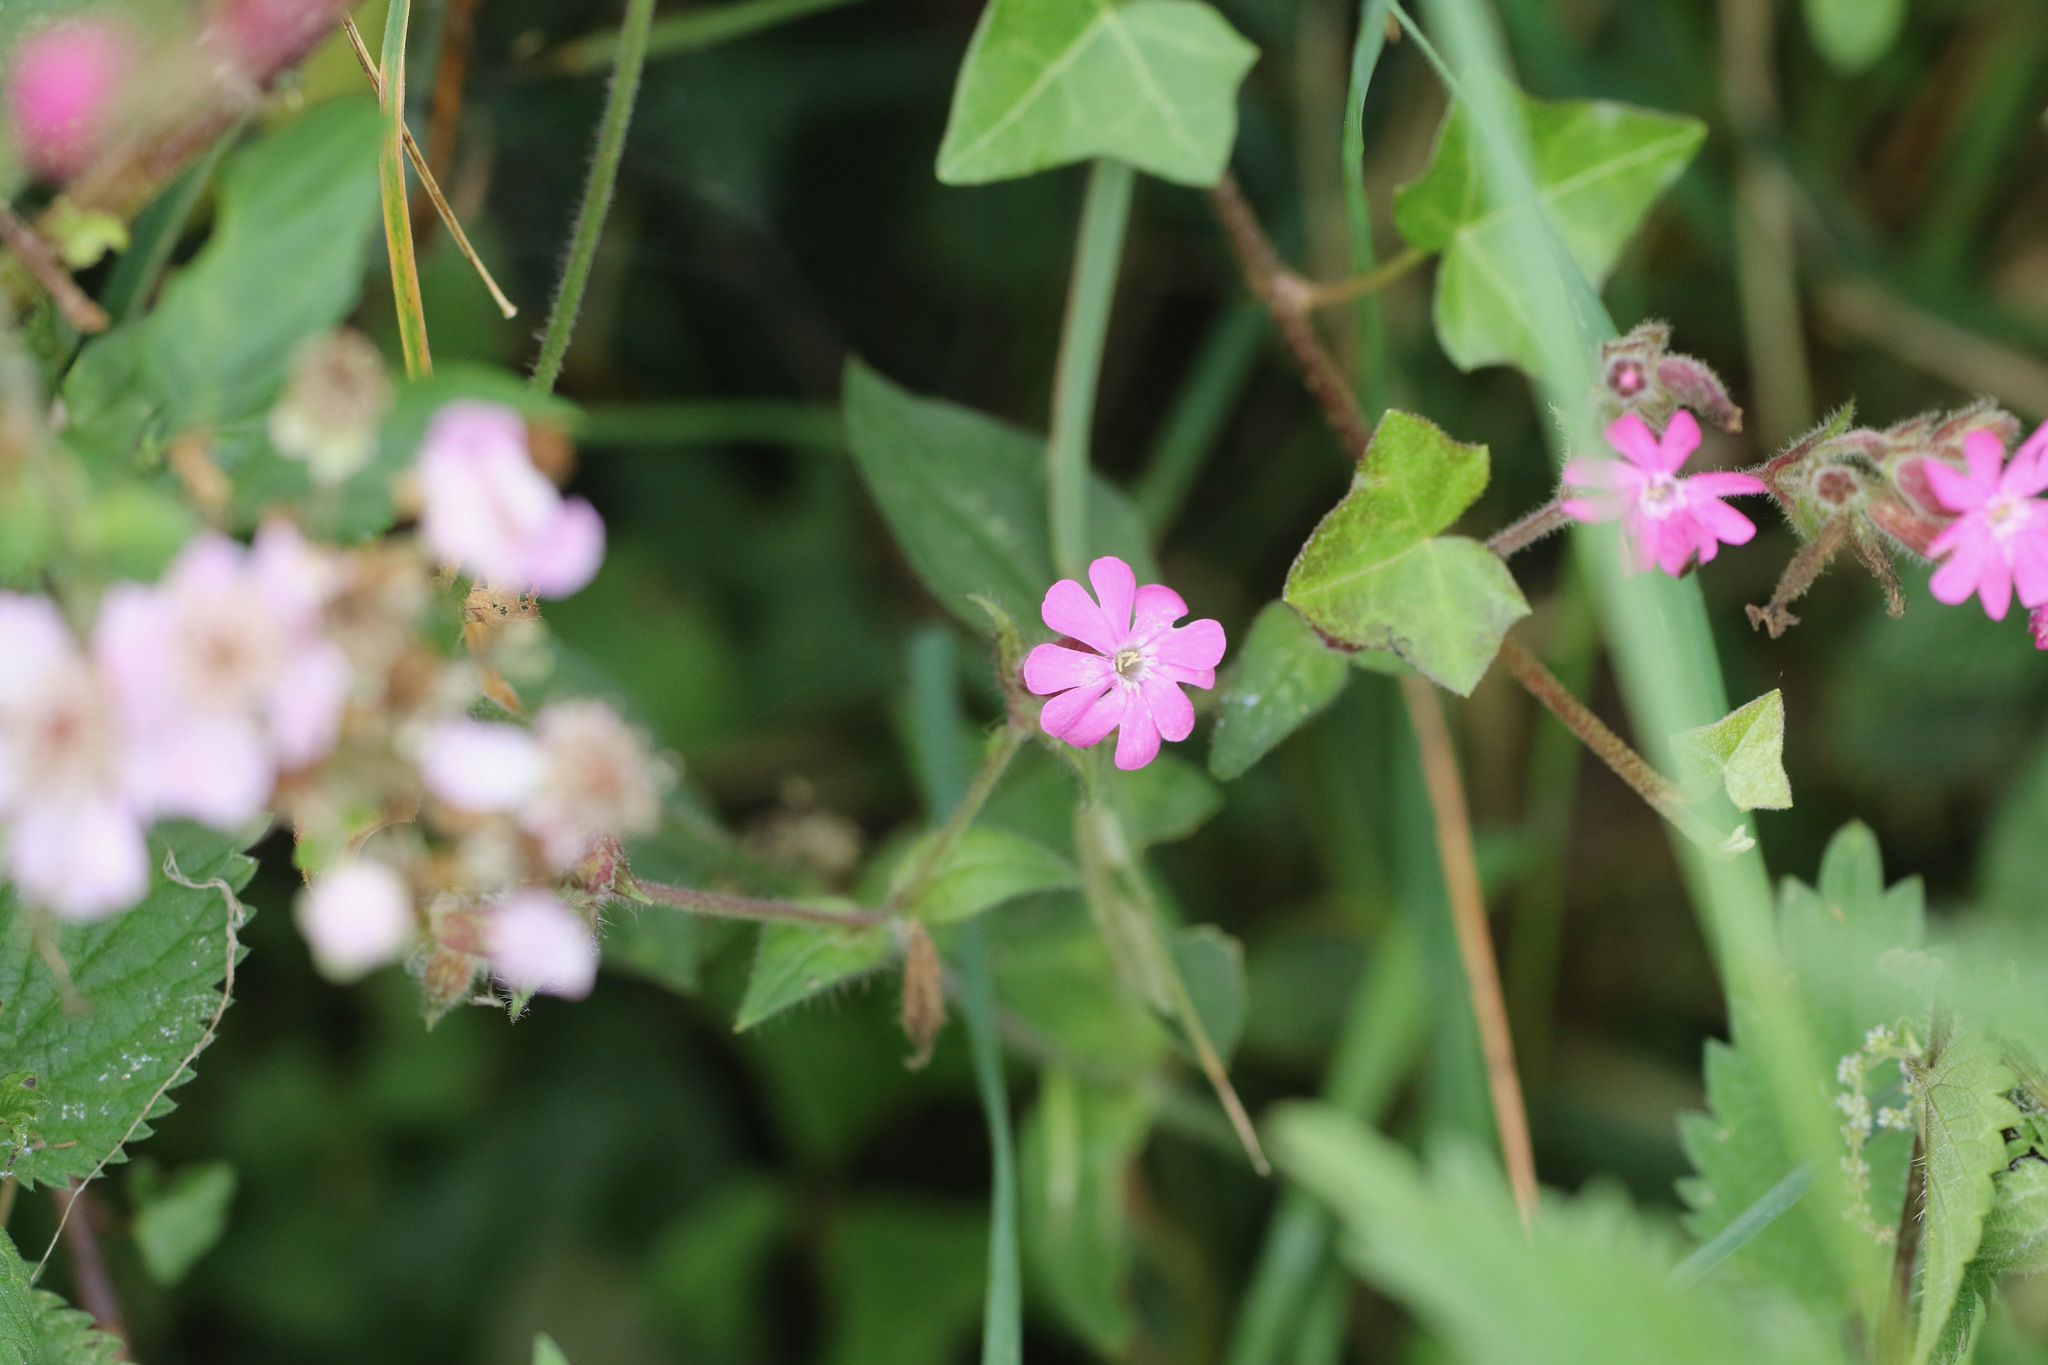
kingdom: Plantae
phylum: Tracheophyta
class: Magnoliopsida
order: Caryophyllales
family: Caryophyllaceae
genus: Silene
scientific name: Silene dioica
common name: Red campion
